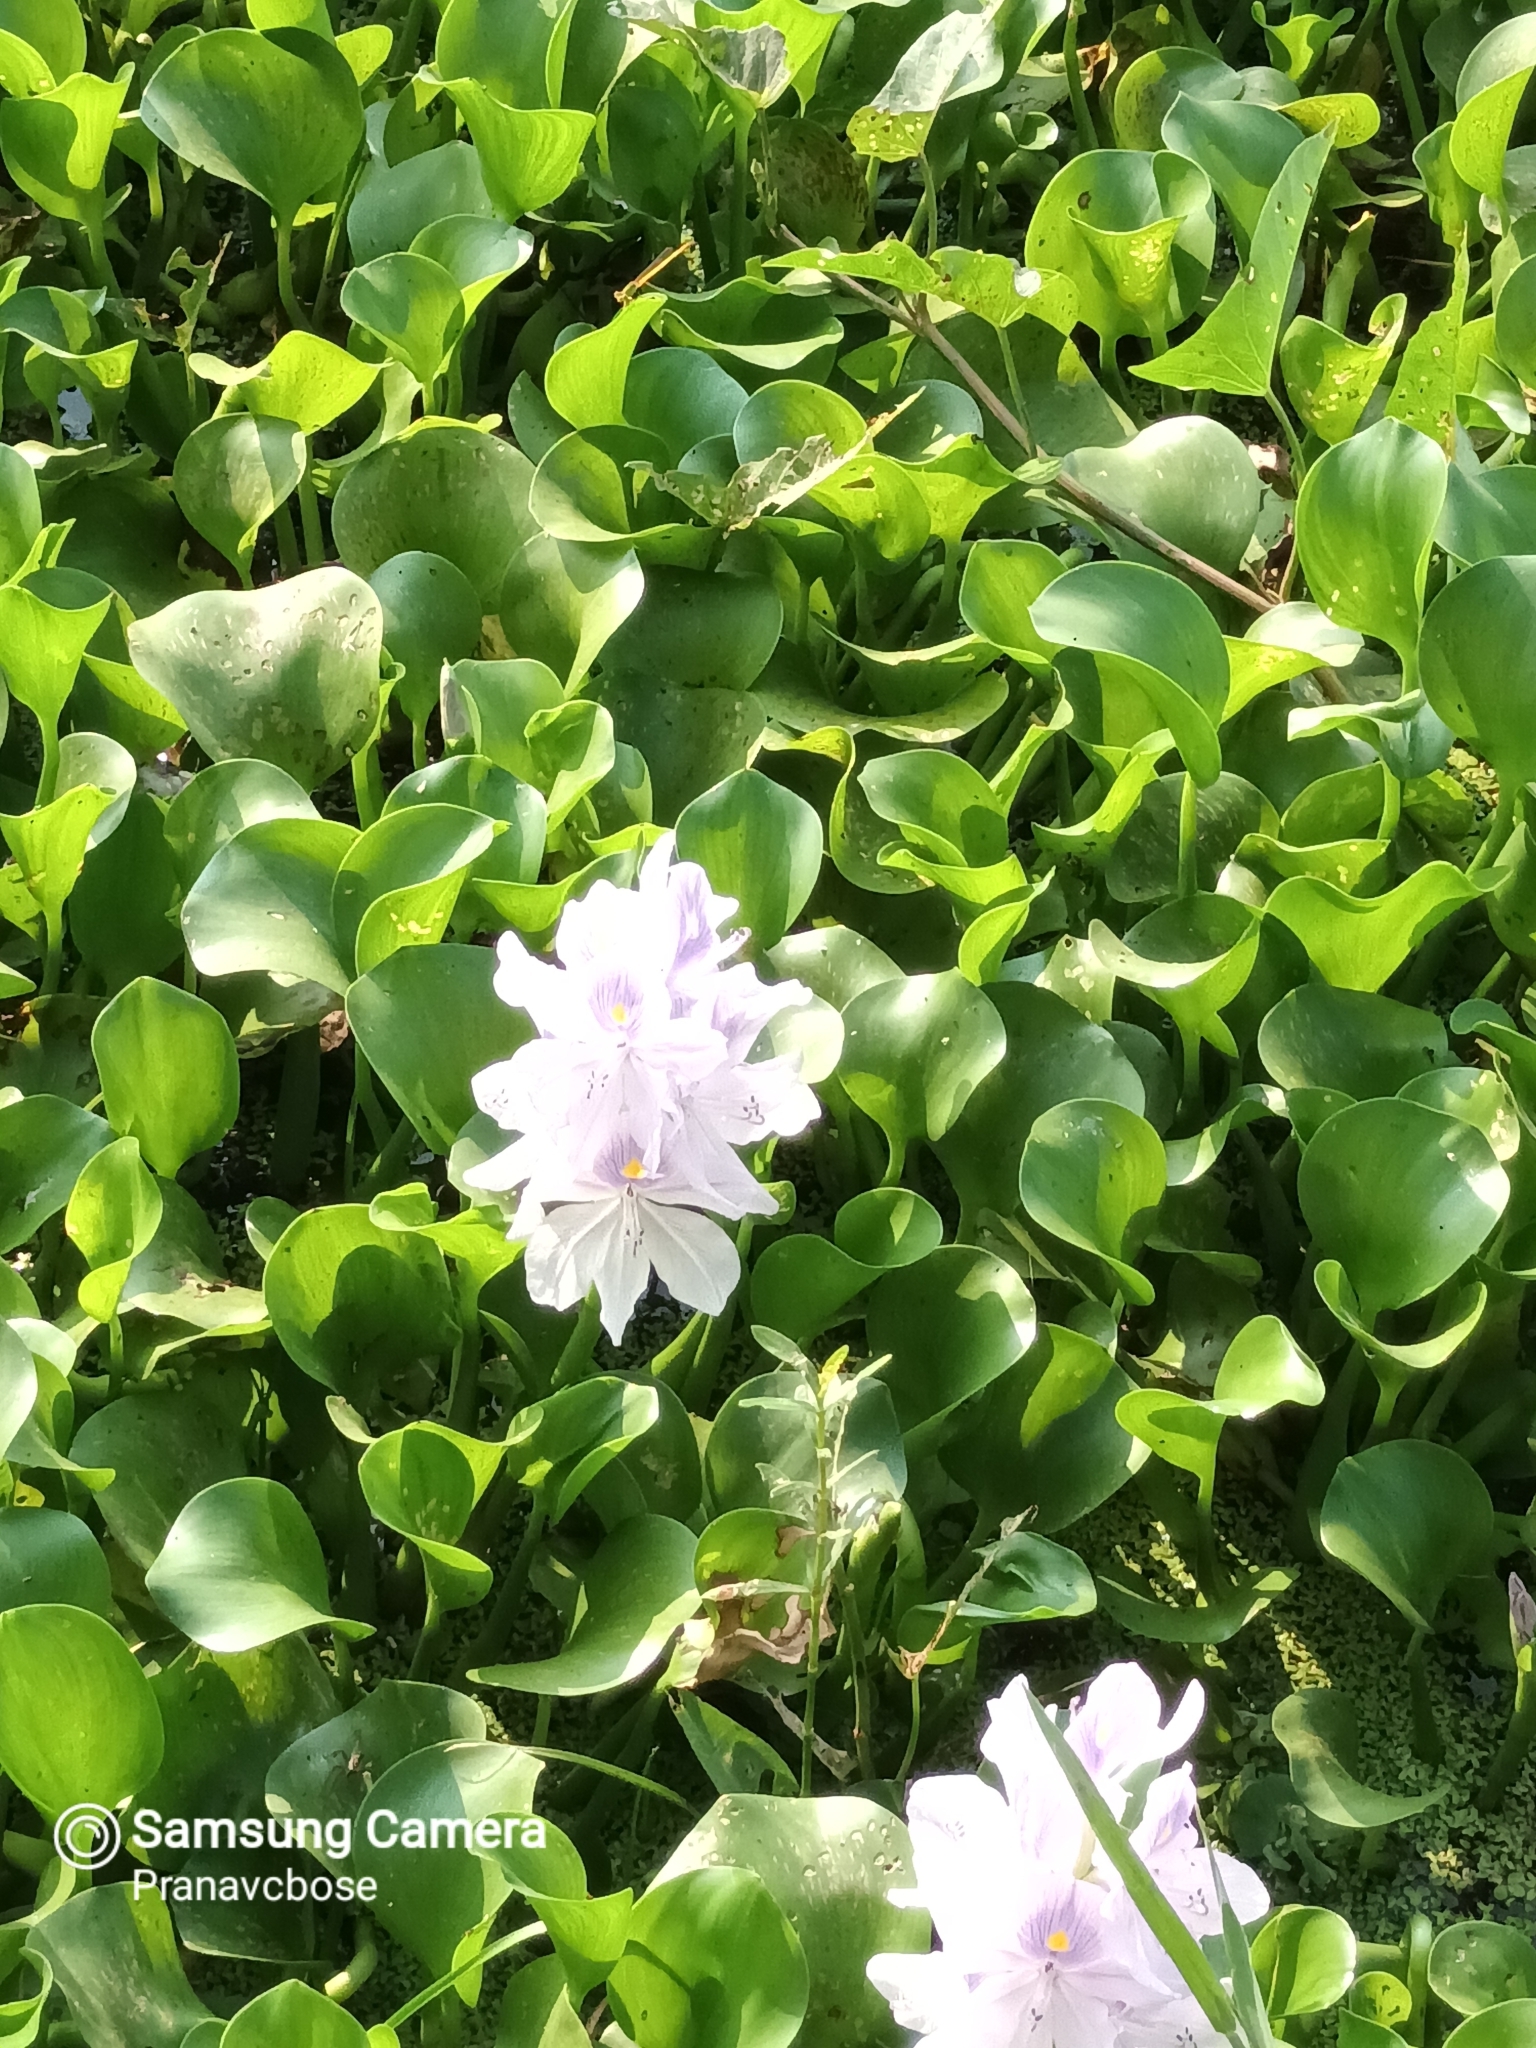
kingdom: Plantae
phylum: Tracheophyta
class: Liliopsida
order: Commelinales
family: Pontederiaceae
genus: Pontederia
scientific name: Pontederia crassipes
